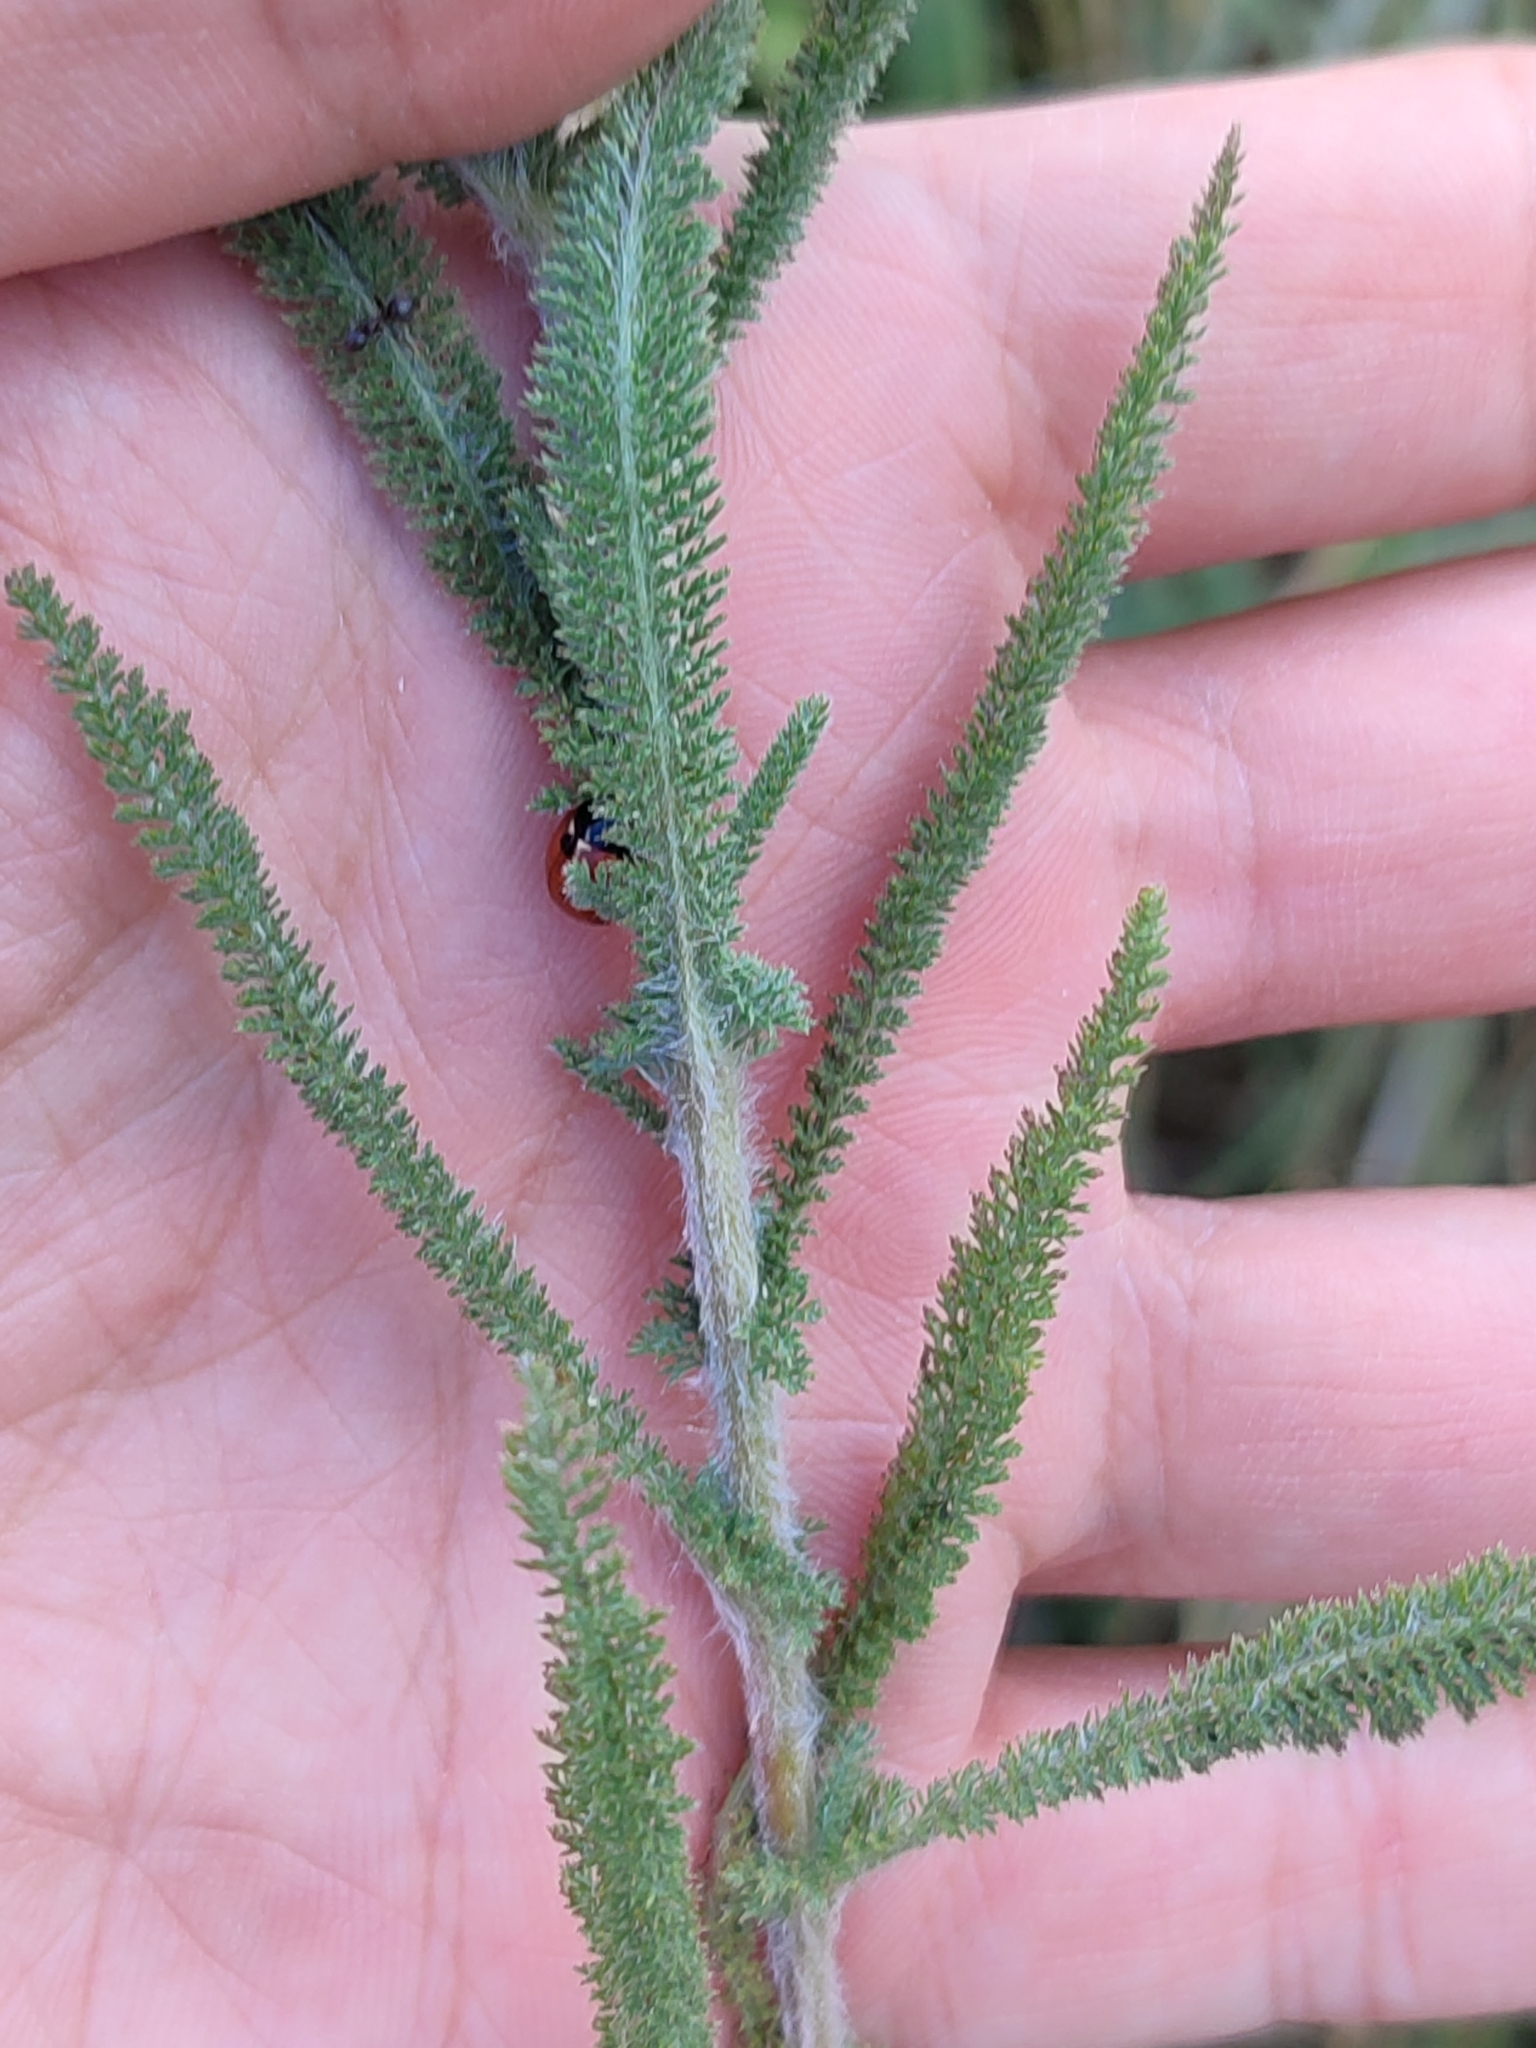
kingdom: Plantae
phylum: Tracheophyta
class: Magnoliopsida
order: Asterales
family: Asteraceae
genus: Achillea
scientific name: Achillea setacea
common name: Bristly yarrow
